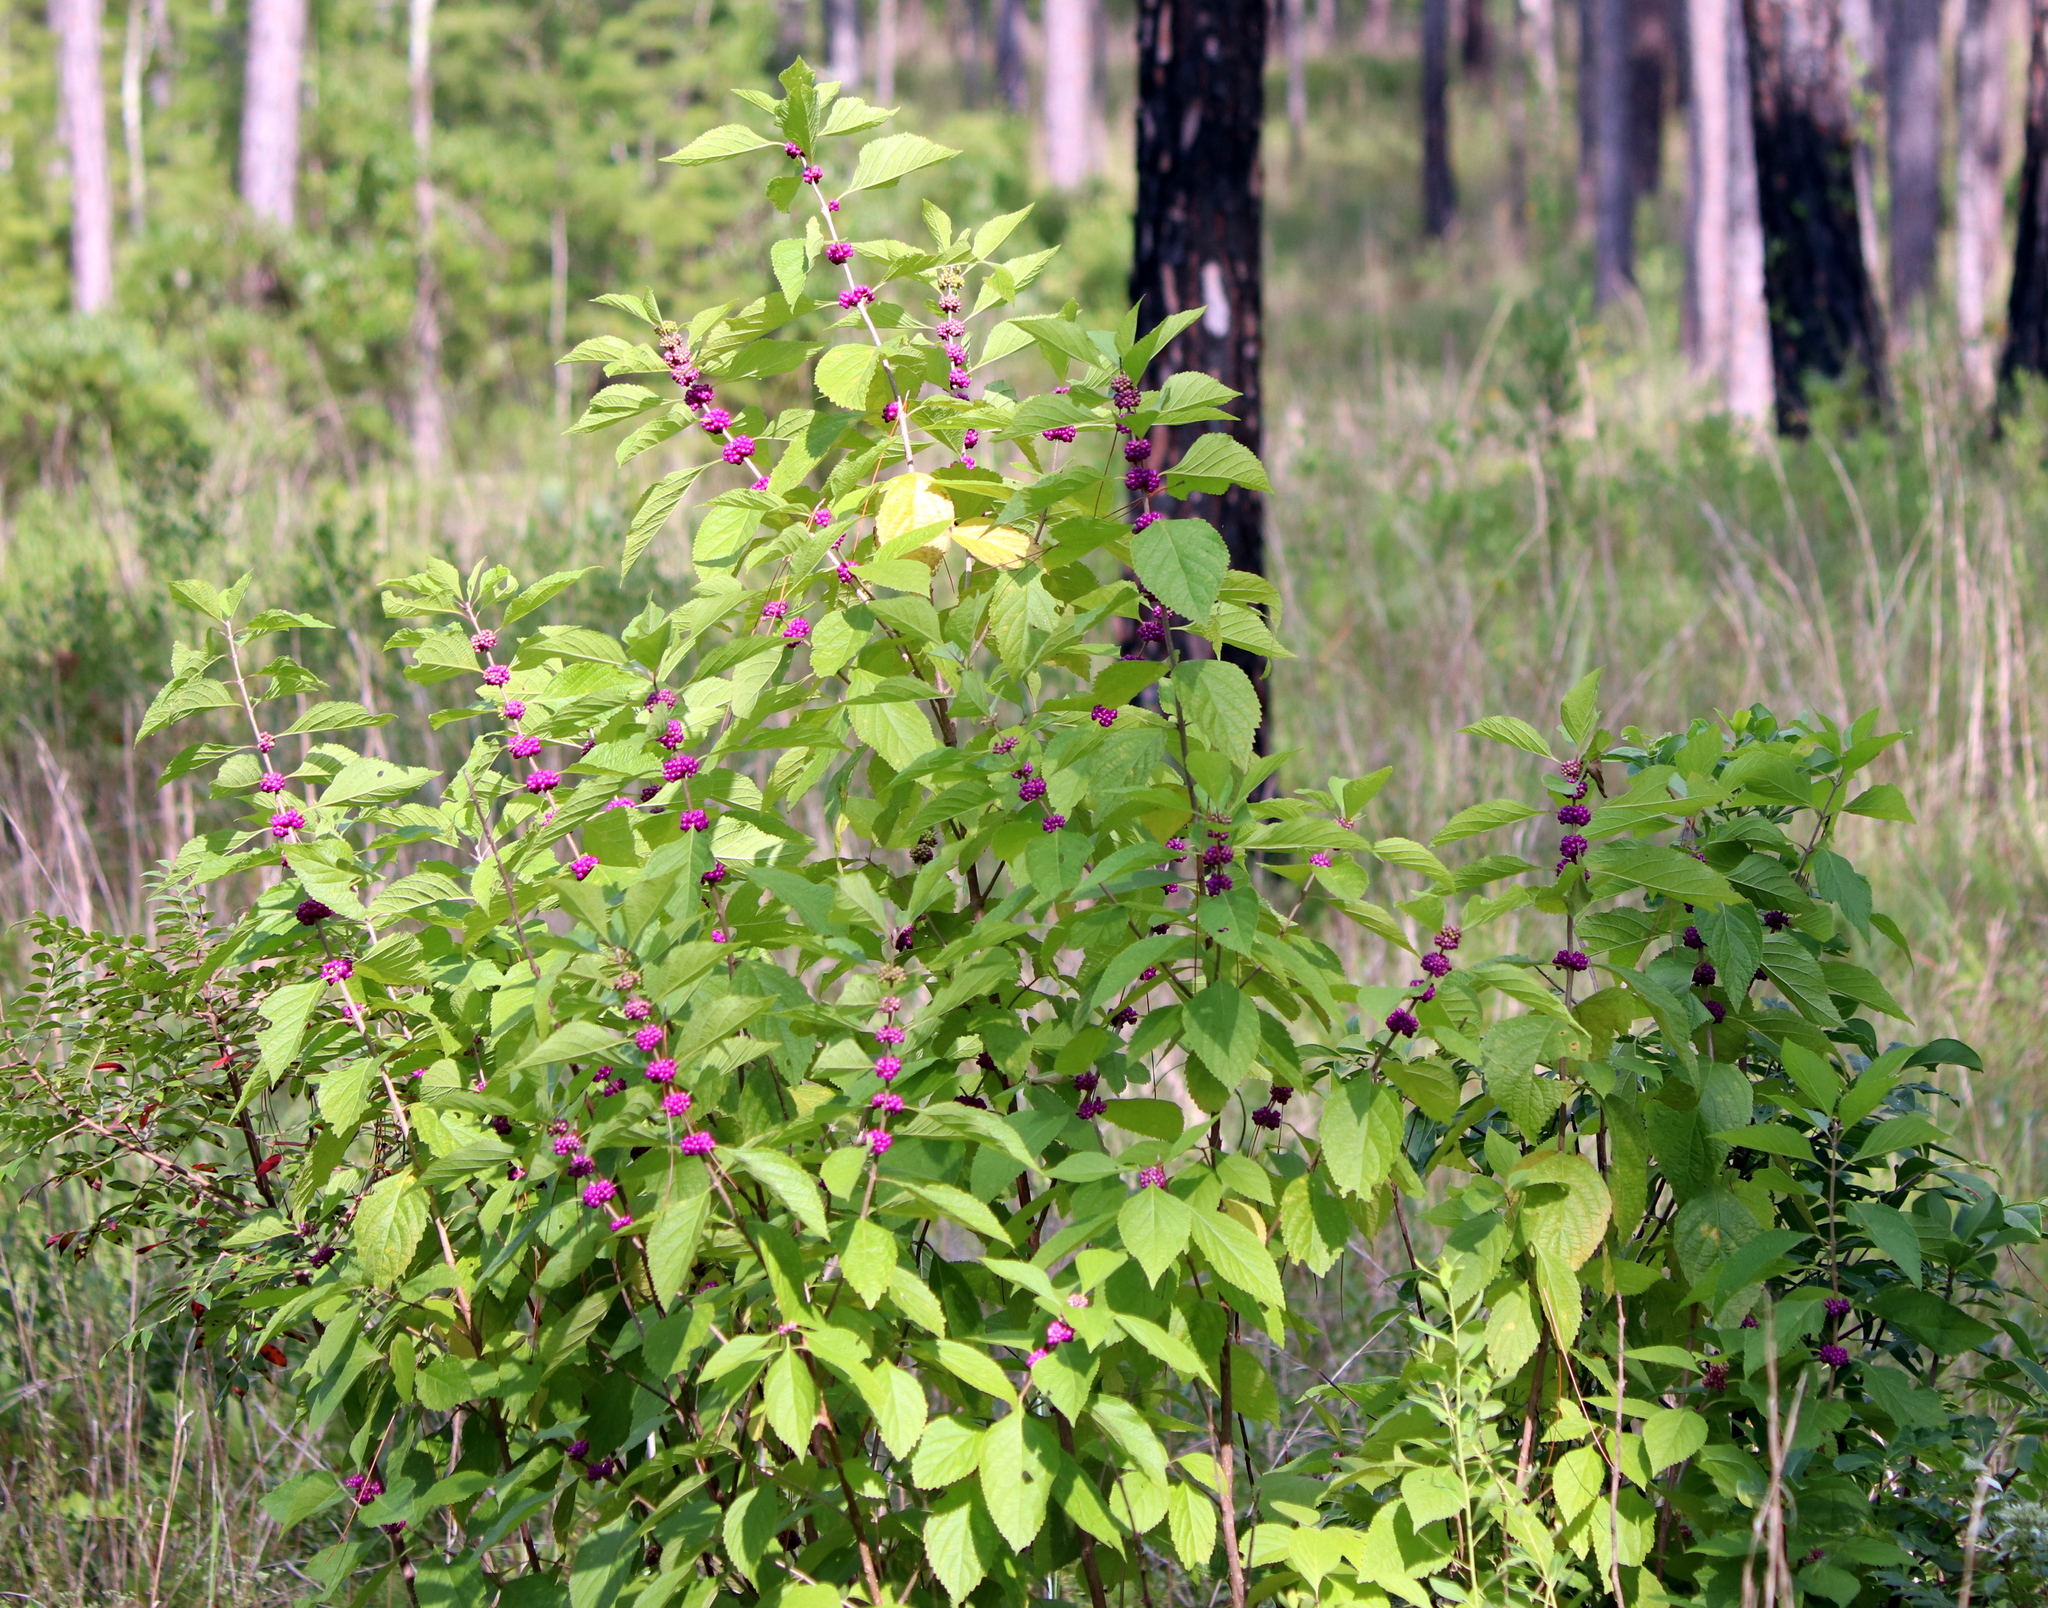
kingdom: Plantae
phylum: Tracheophyta
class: Magnoliopsida
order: Lamiales
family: Lamiaceae
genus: Callicarpa
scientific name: Callicarpa americana
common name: American beautyberry
